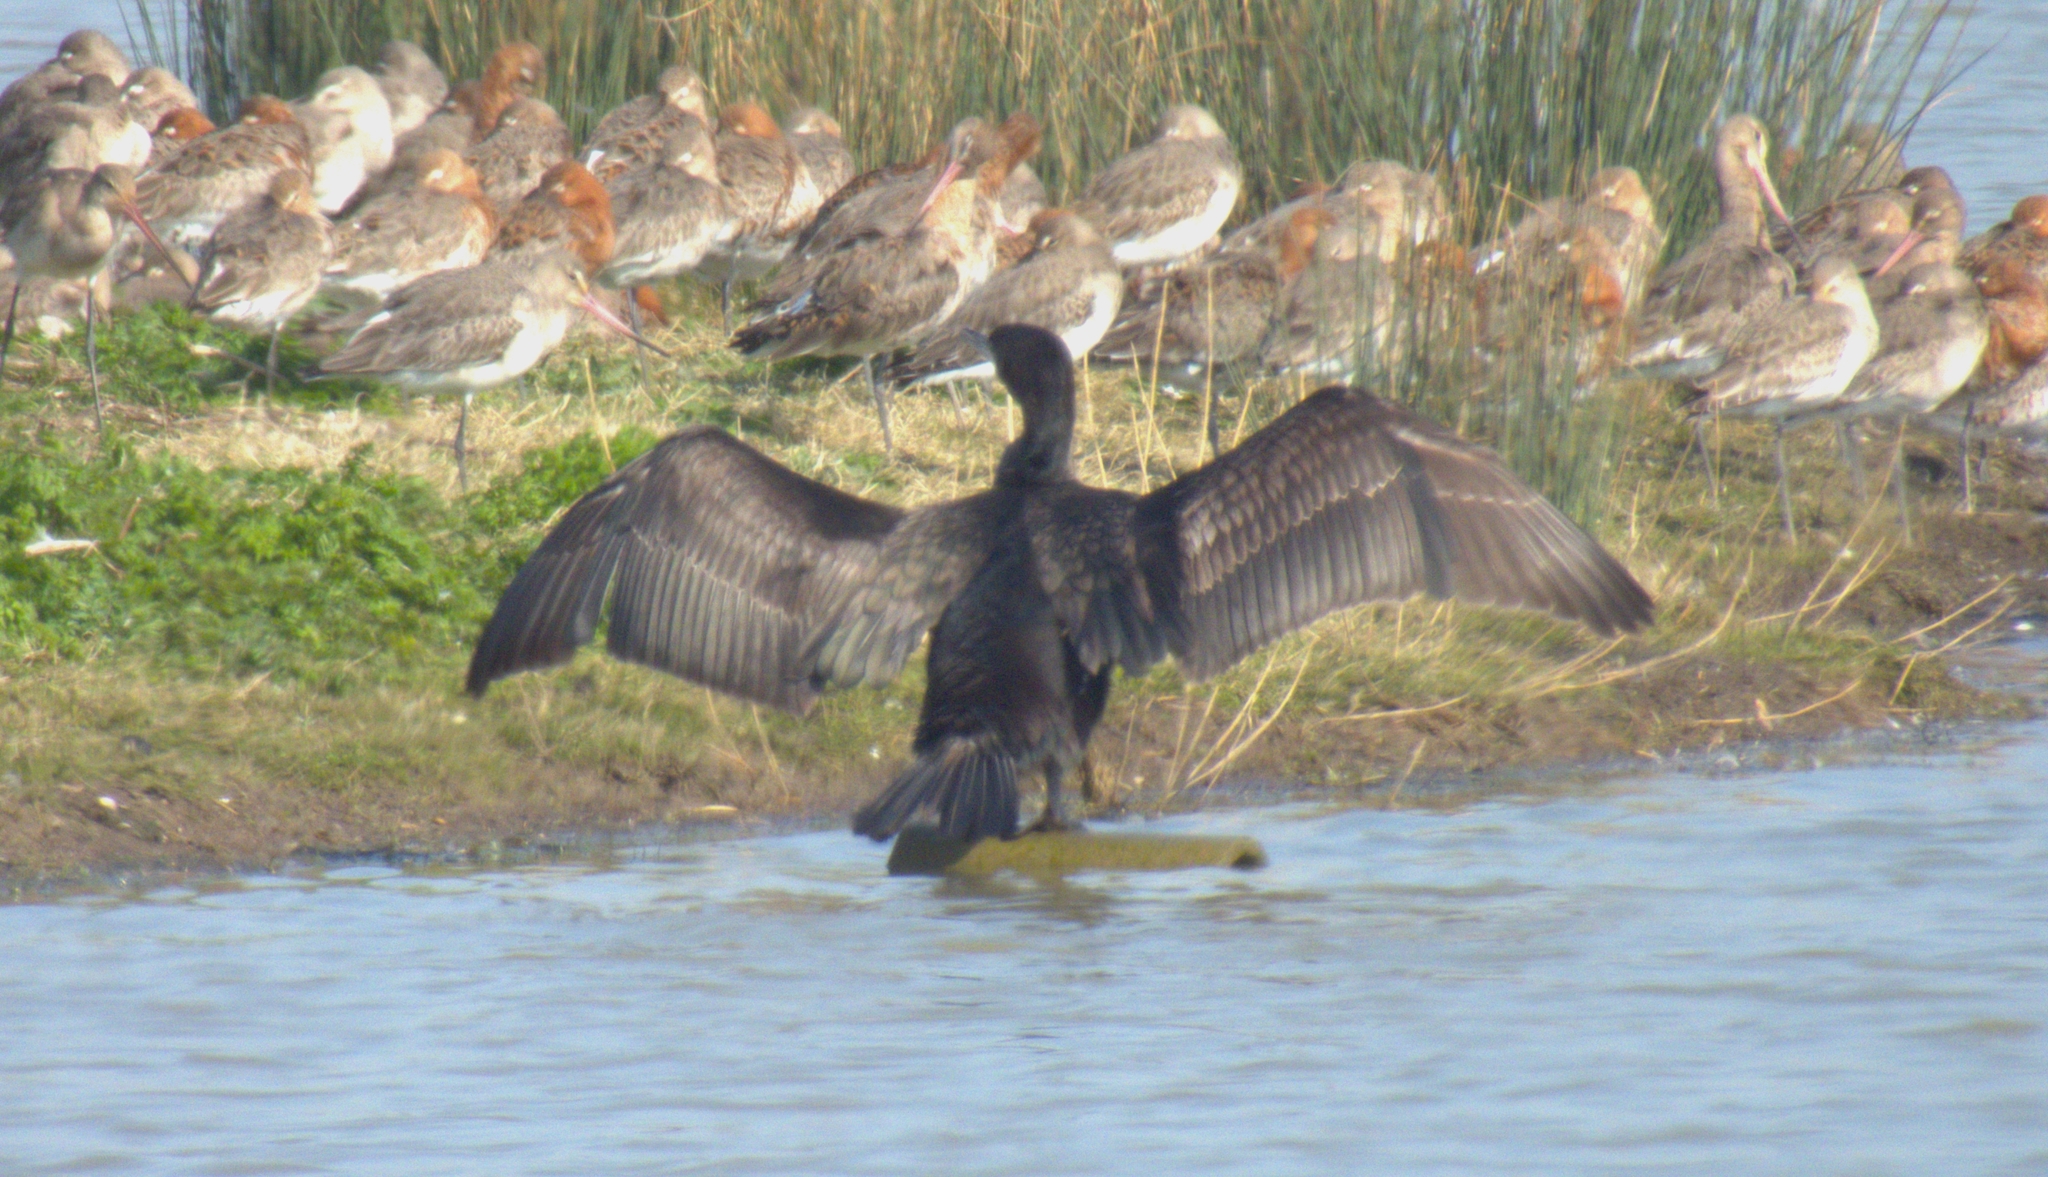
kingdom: Animalia
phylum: Chordata
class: Aves
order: Suliformes
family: Phalacrocoracidae
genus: Phalacrocorax
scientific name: Phalacrocorax carbo
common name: Great cormorant
